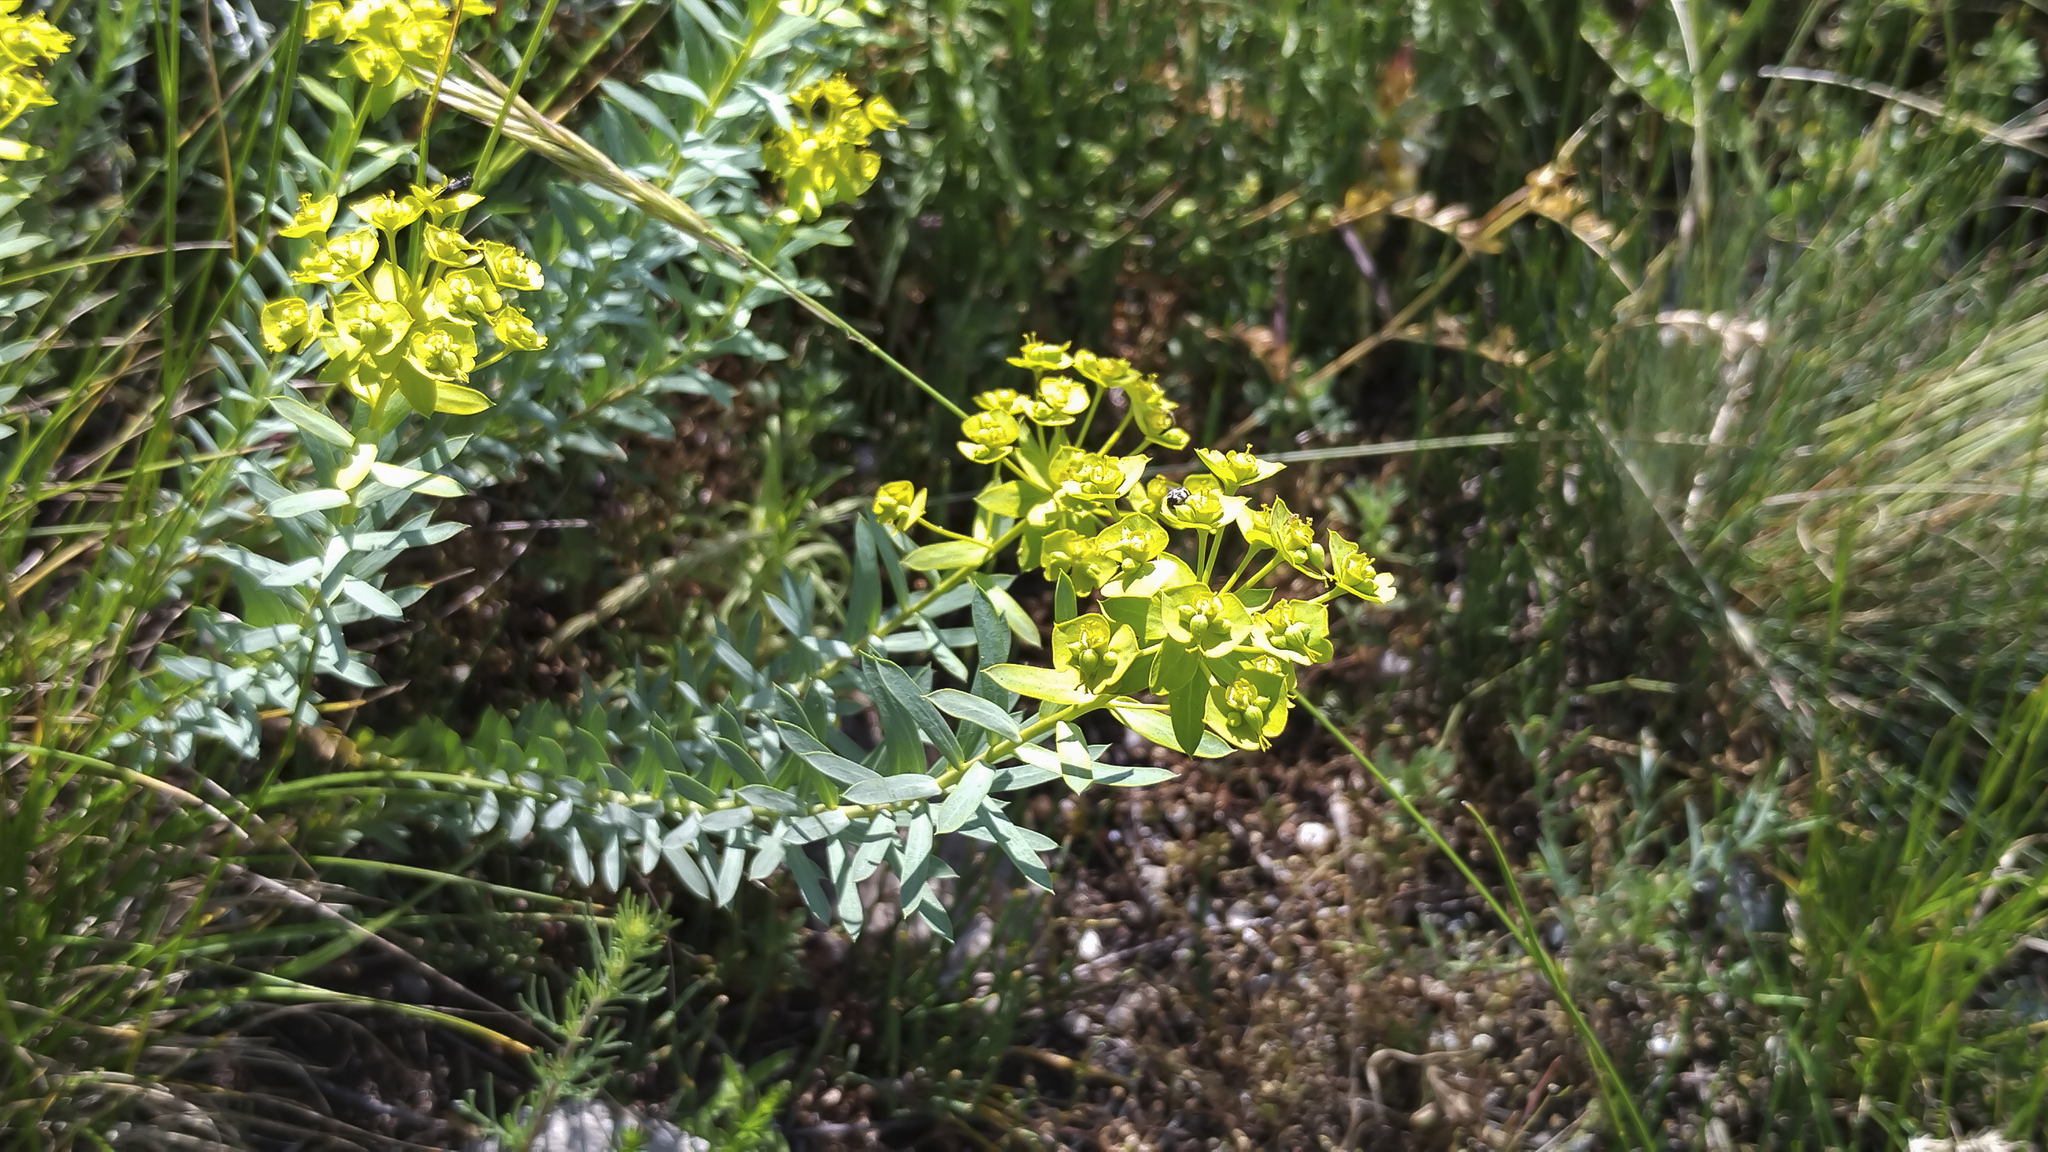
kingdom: Plantae
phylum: Tracheophyta
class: Magnoliopsida
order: Malpighiales
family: Euphorbiaceae
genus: Euphorbia
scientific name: Euphorbia seguieriana
